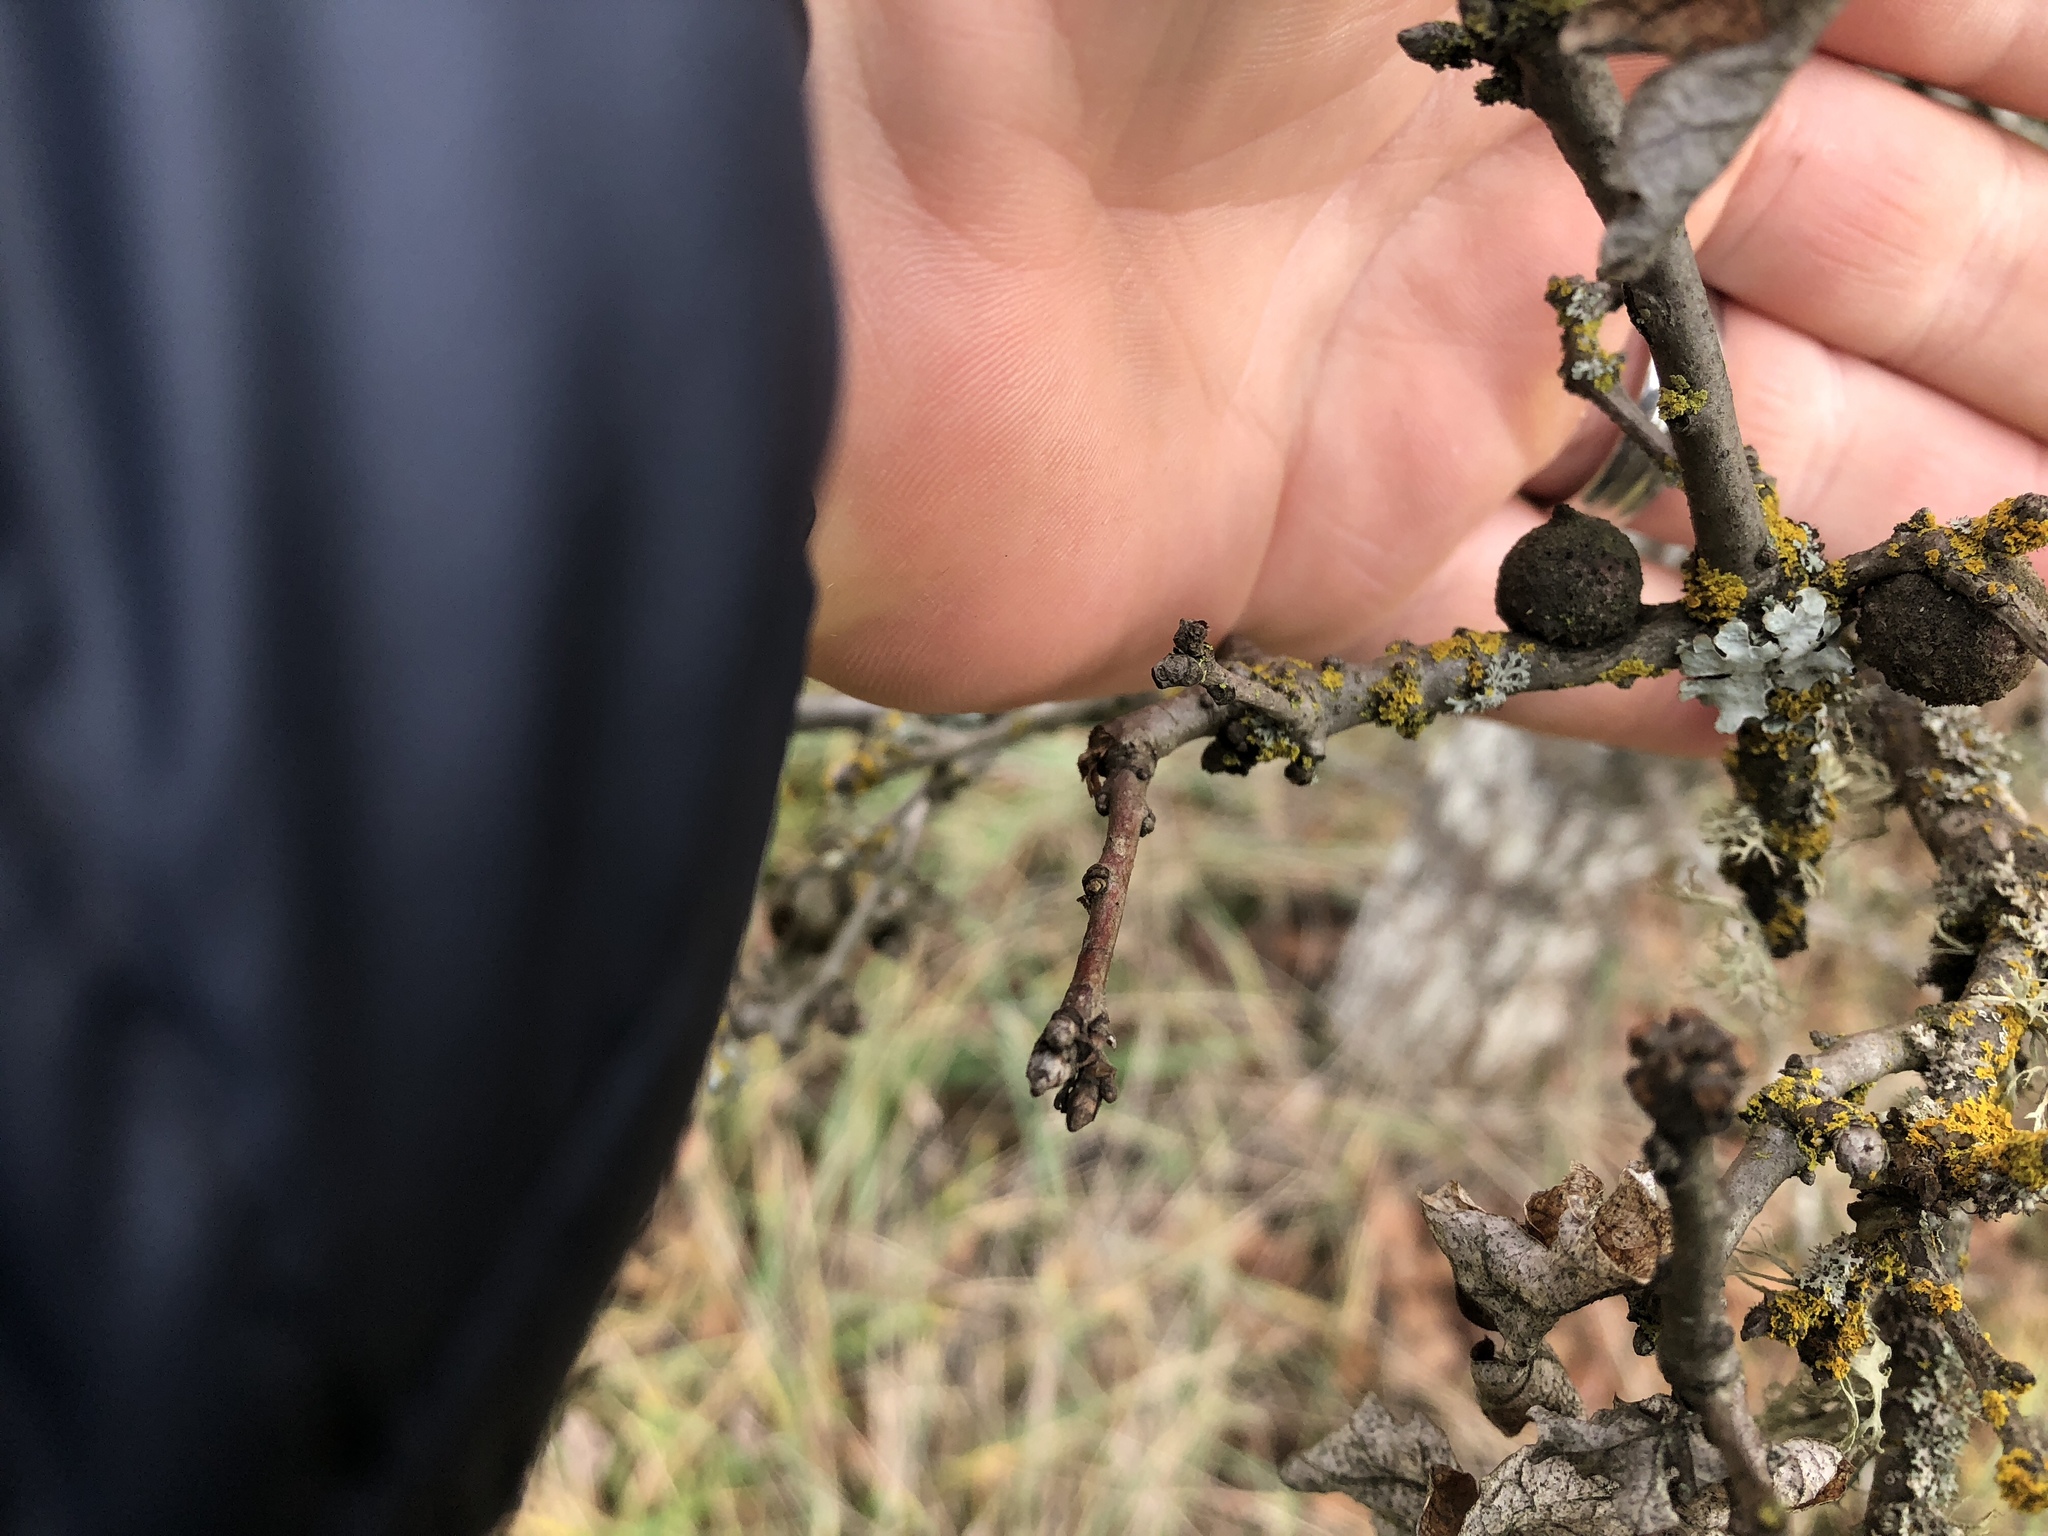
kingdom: Animalia
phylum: Arthropoda
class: Insecta
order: Hymenoptera
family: Cynipidae
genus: Andricus
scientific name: Andricus quercuscalifornicus
